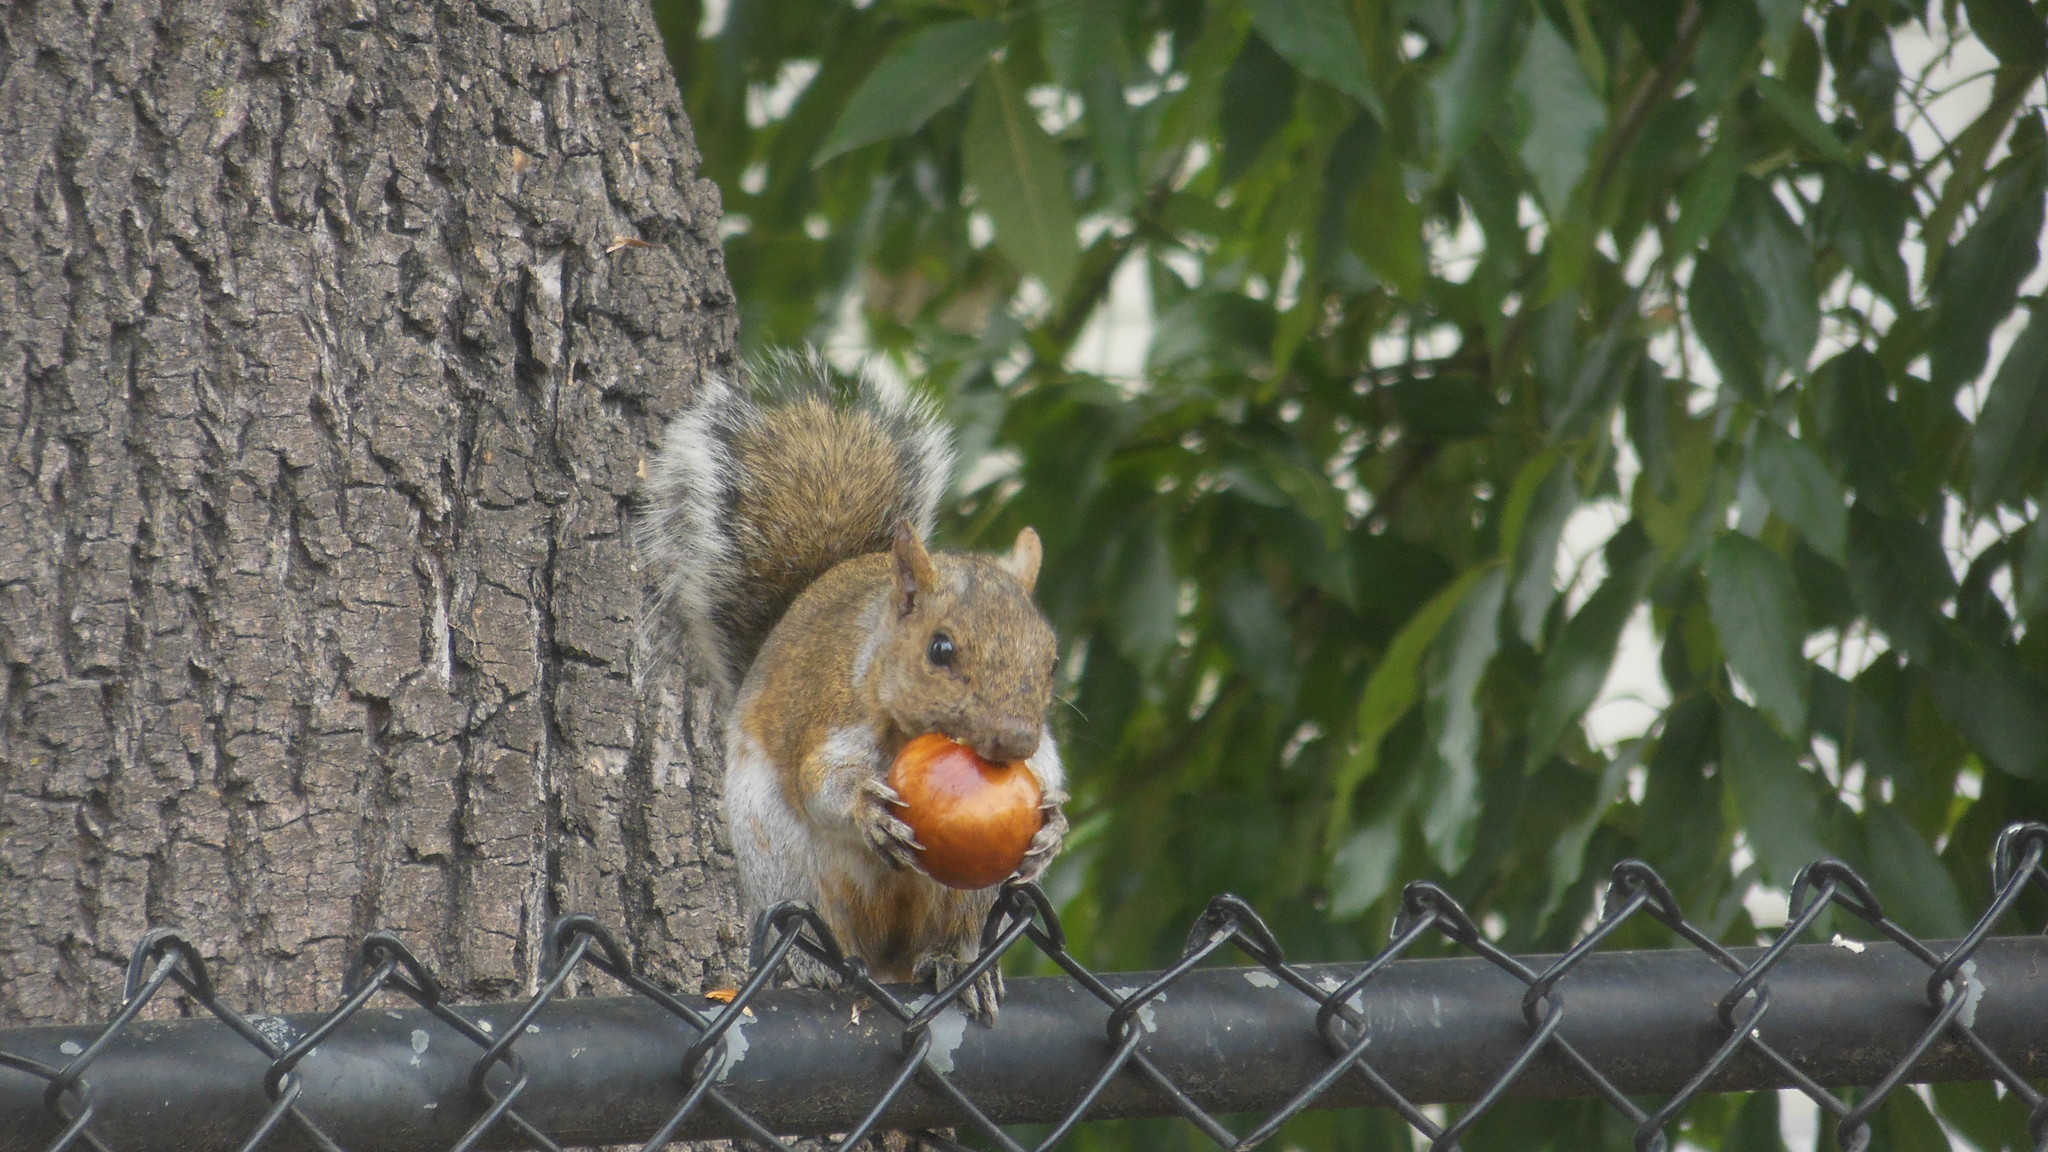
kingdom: Animalia
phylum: Chordata
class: Mammalia
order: Rodentia
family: Sciuridae
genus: Sciurus
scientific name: Sciurus carolinensis
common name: Eastern gray squirrel
